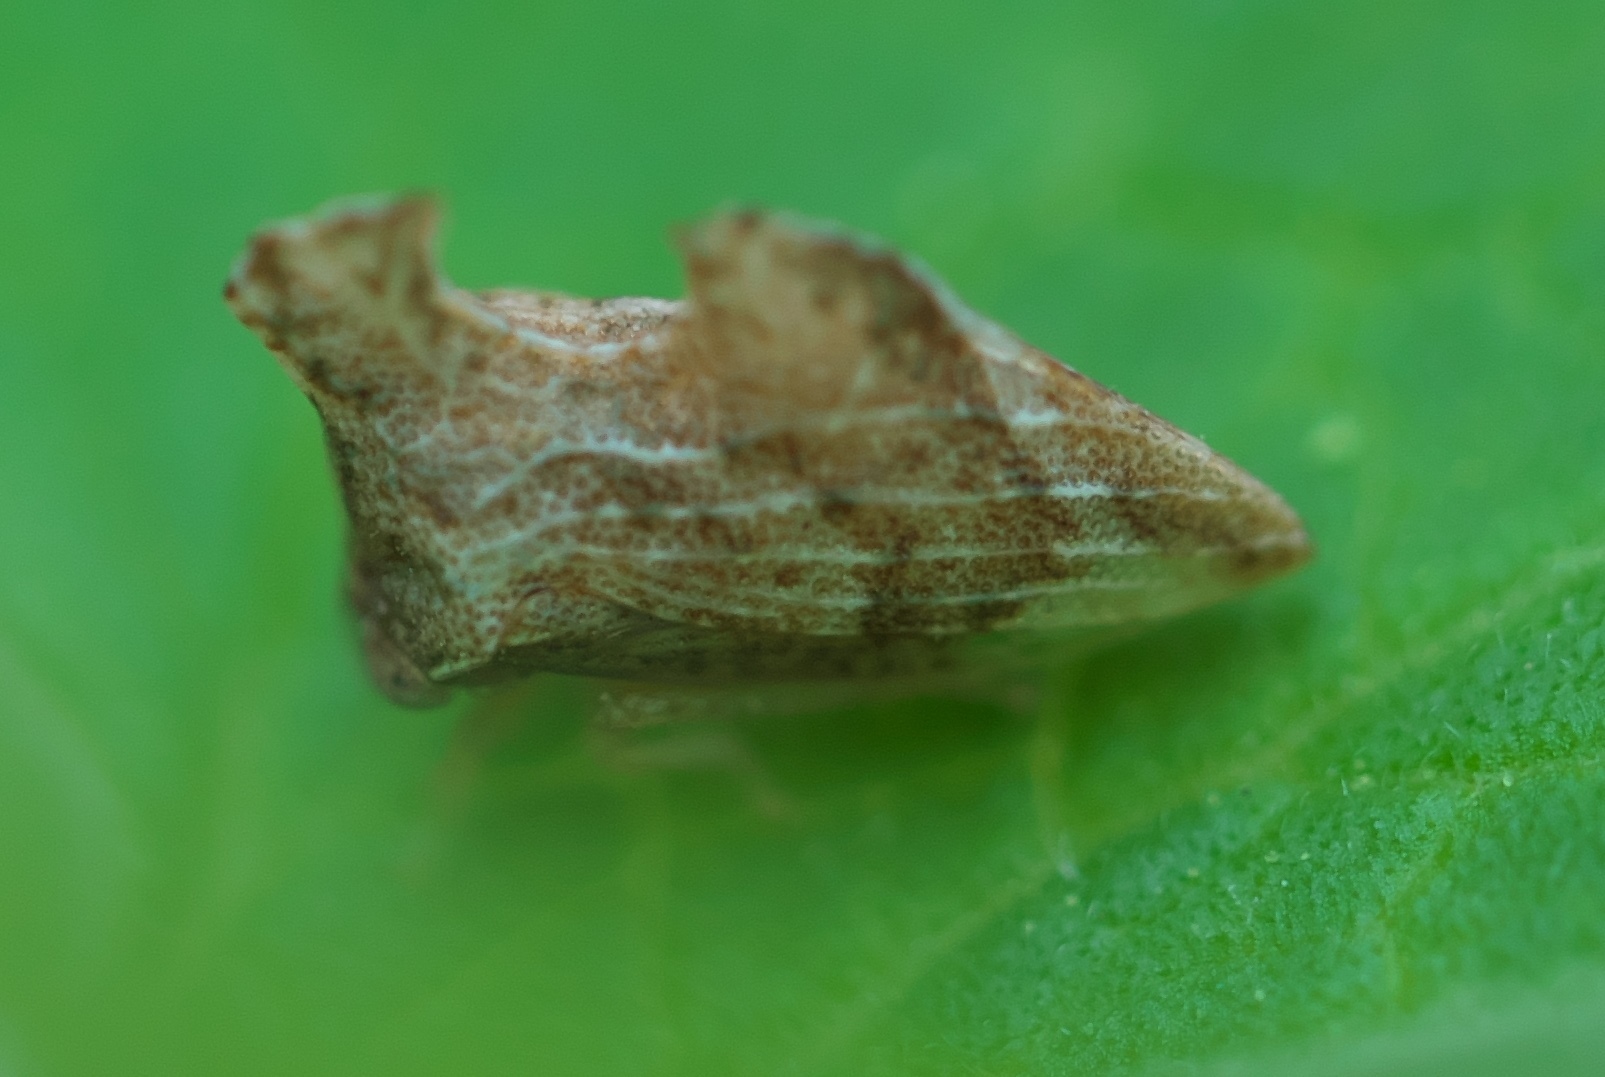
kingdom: Animalia
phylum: Arthropoda
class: Insecta
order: Hemiptera
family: Membracidae
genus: Entylia
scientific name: Entylia carinata
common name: Keeled treehopper
